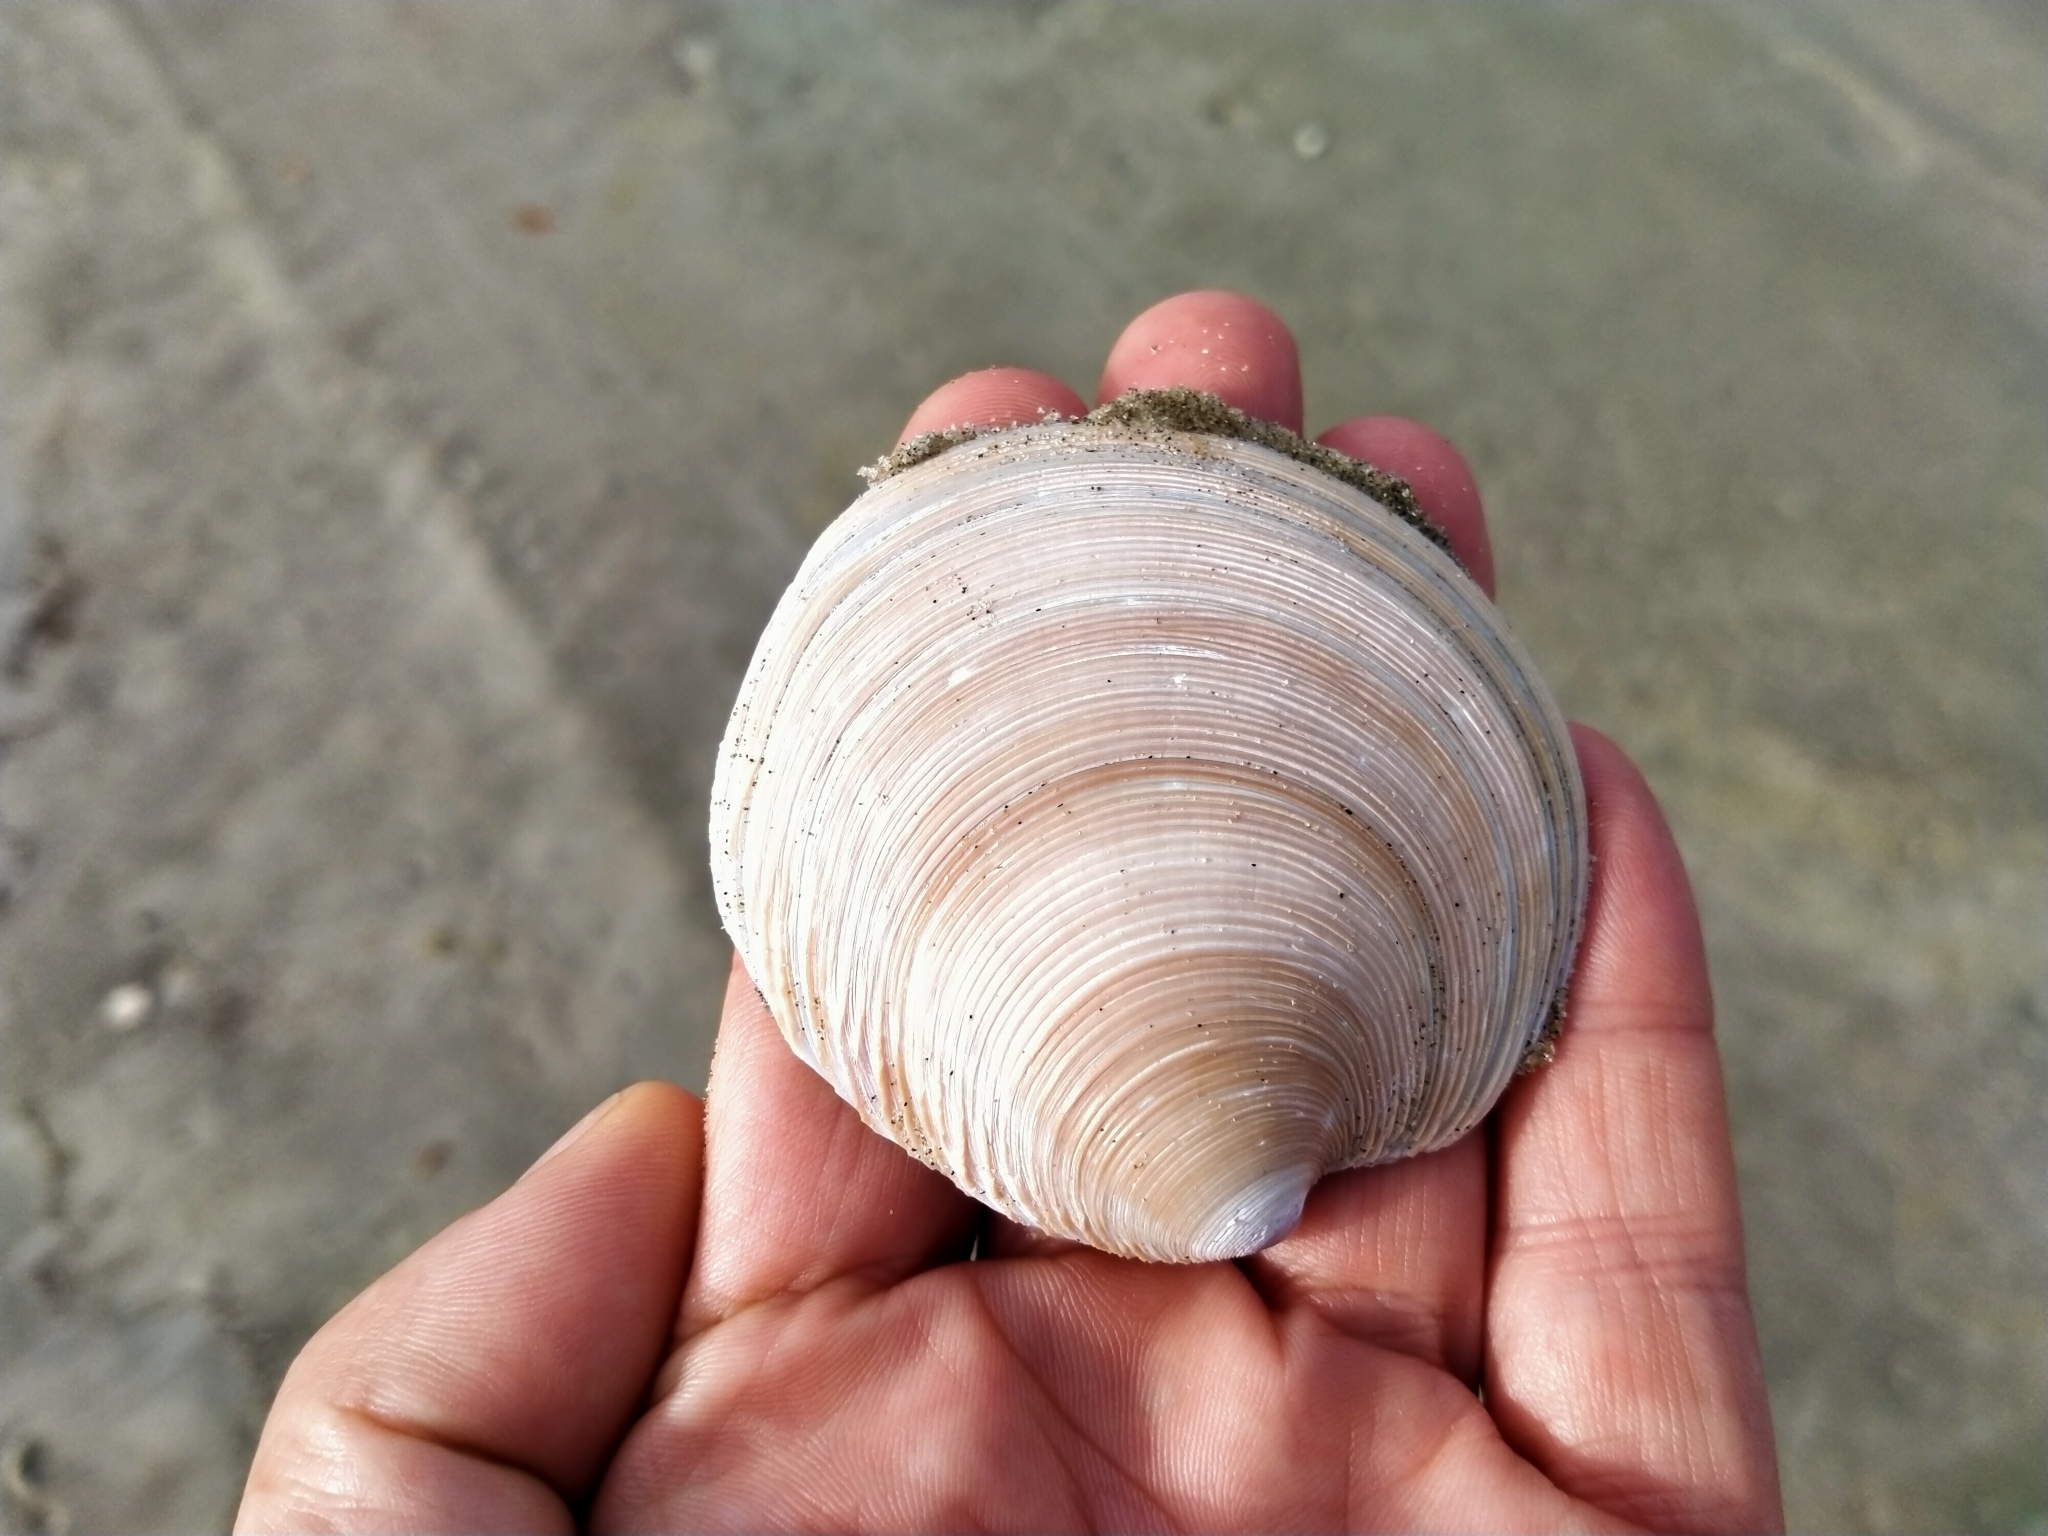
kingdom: Animalia
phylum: Mollusca
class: Bivalvia
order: Venerida
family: Veneridae
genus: Dosinia
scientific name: Dosinia anus
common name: Old-woman dosinia
